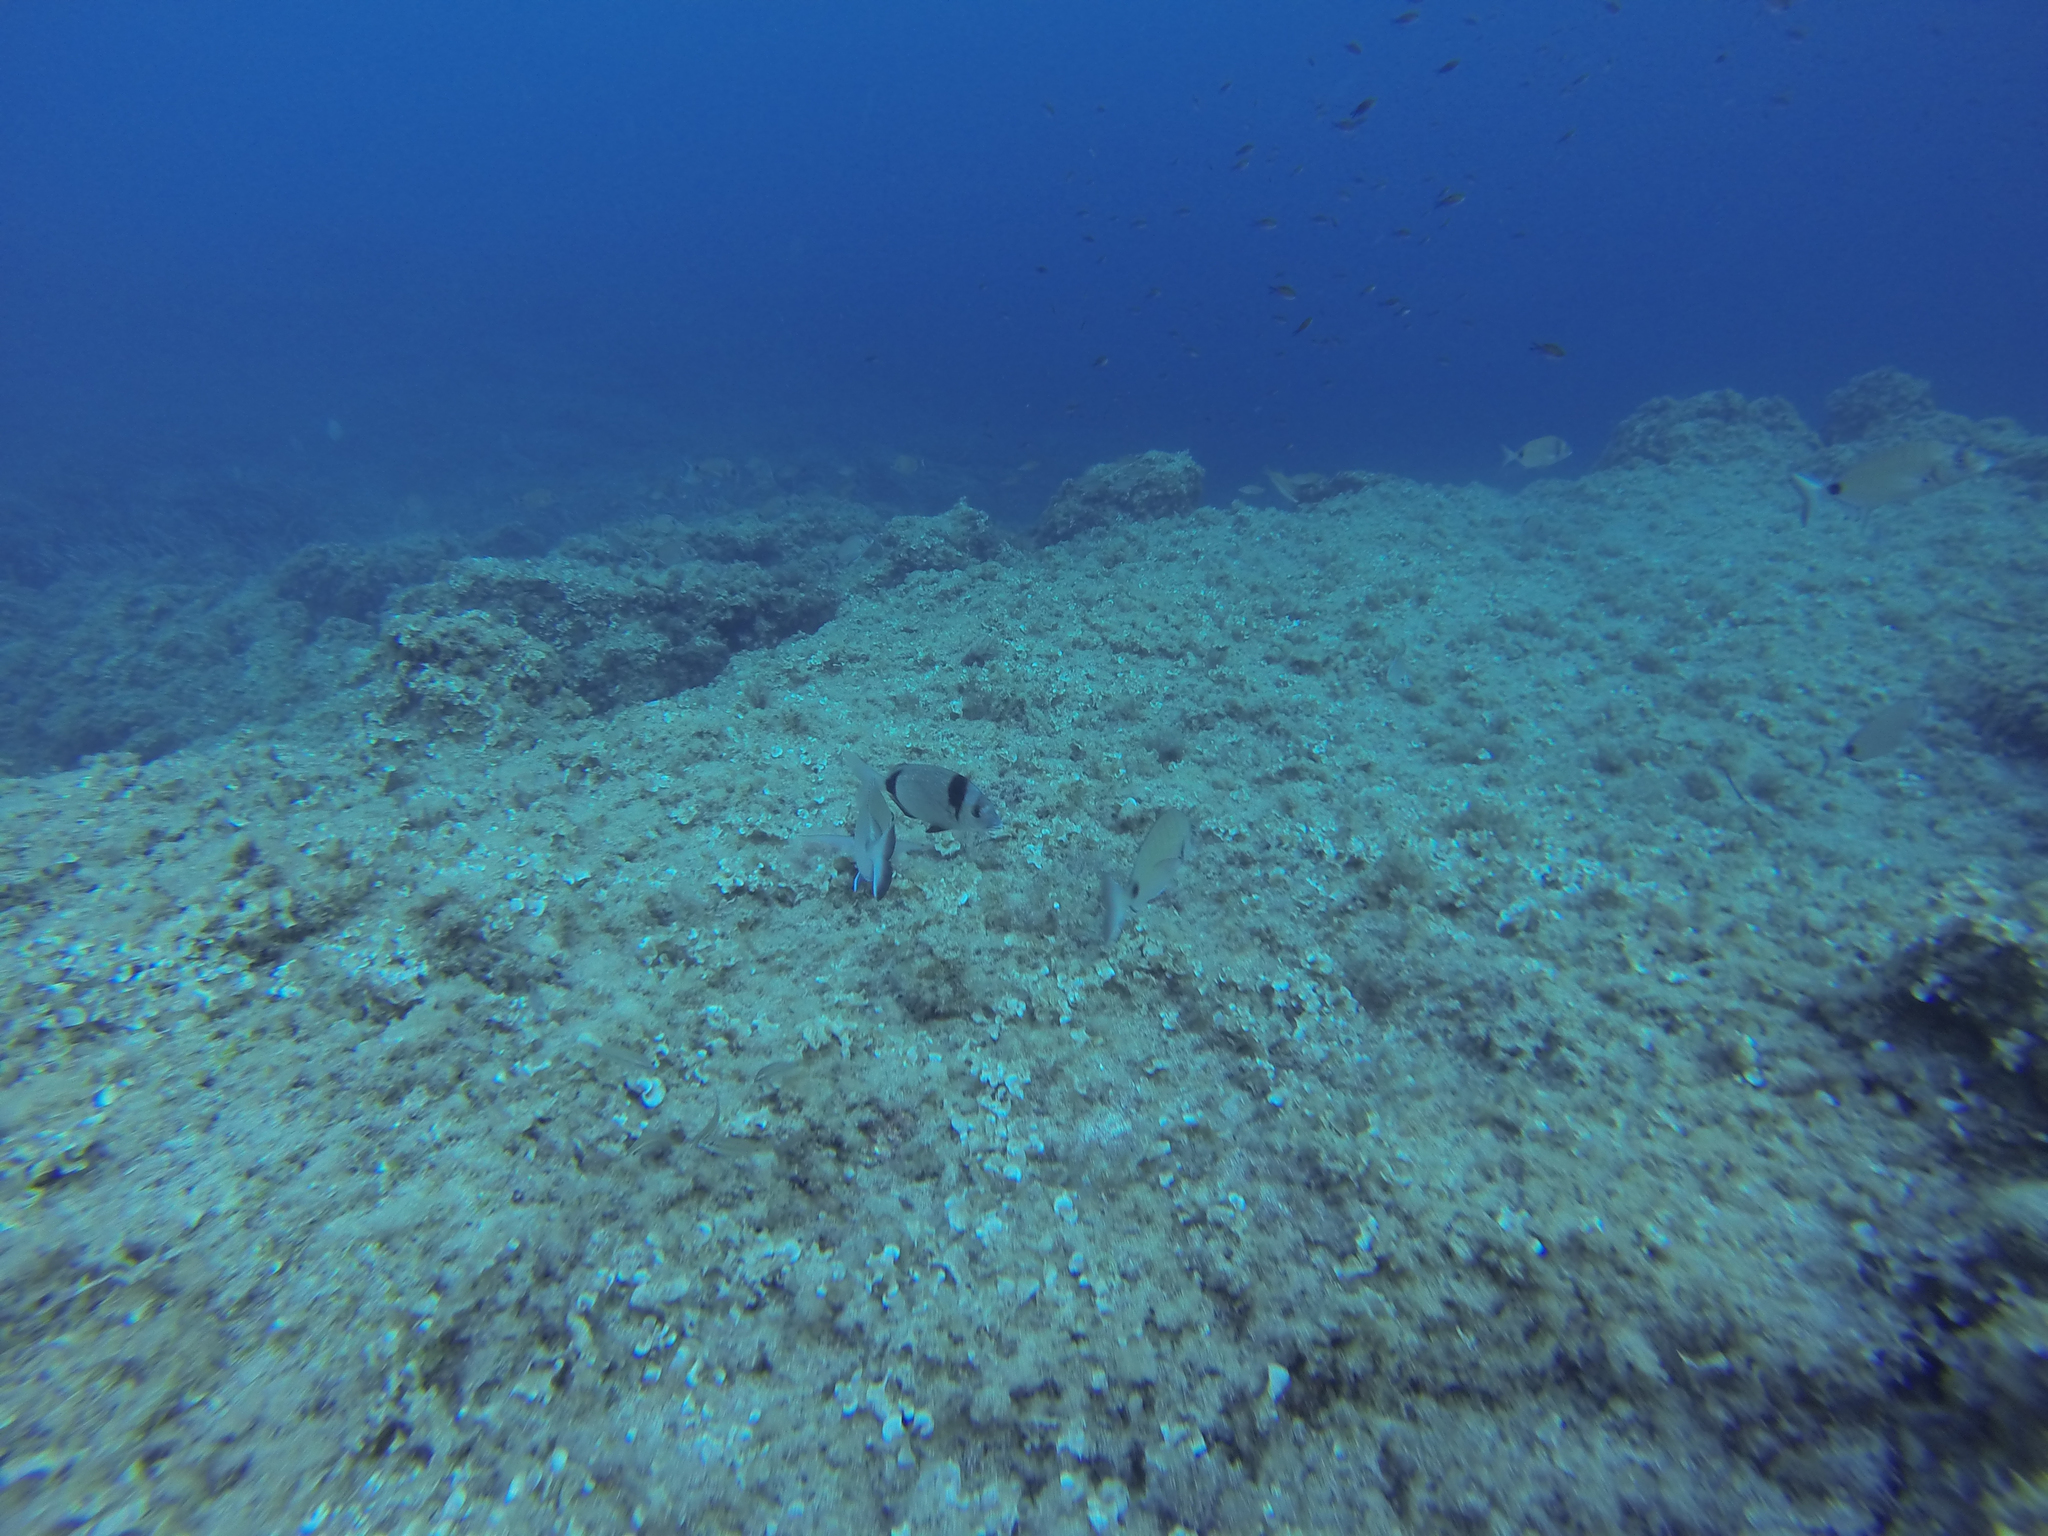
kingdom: Animalia
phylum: Chordata
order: Perciformes
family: Sparidae
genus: Diplodus
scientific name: Diplodus vulgaris
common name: Common two-banded seabream
